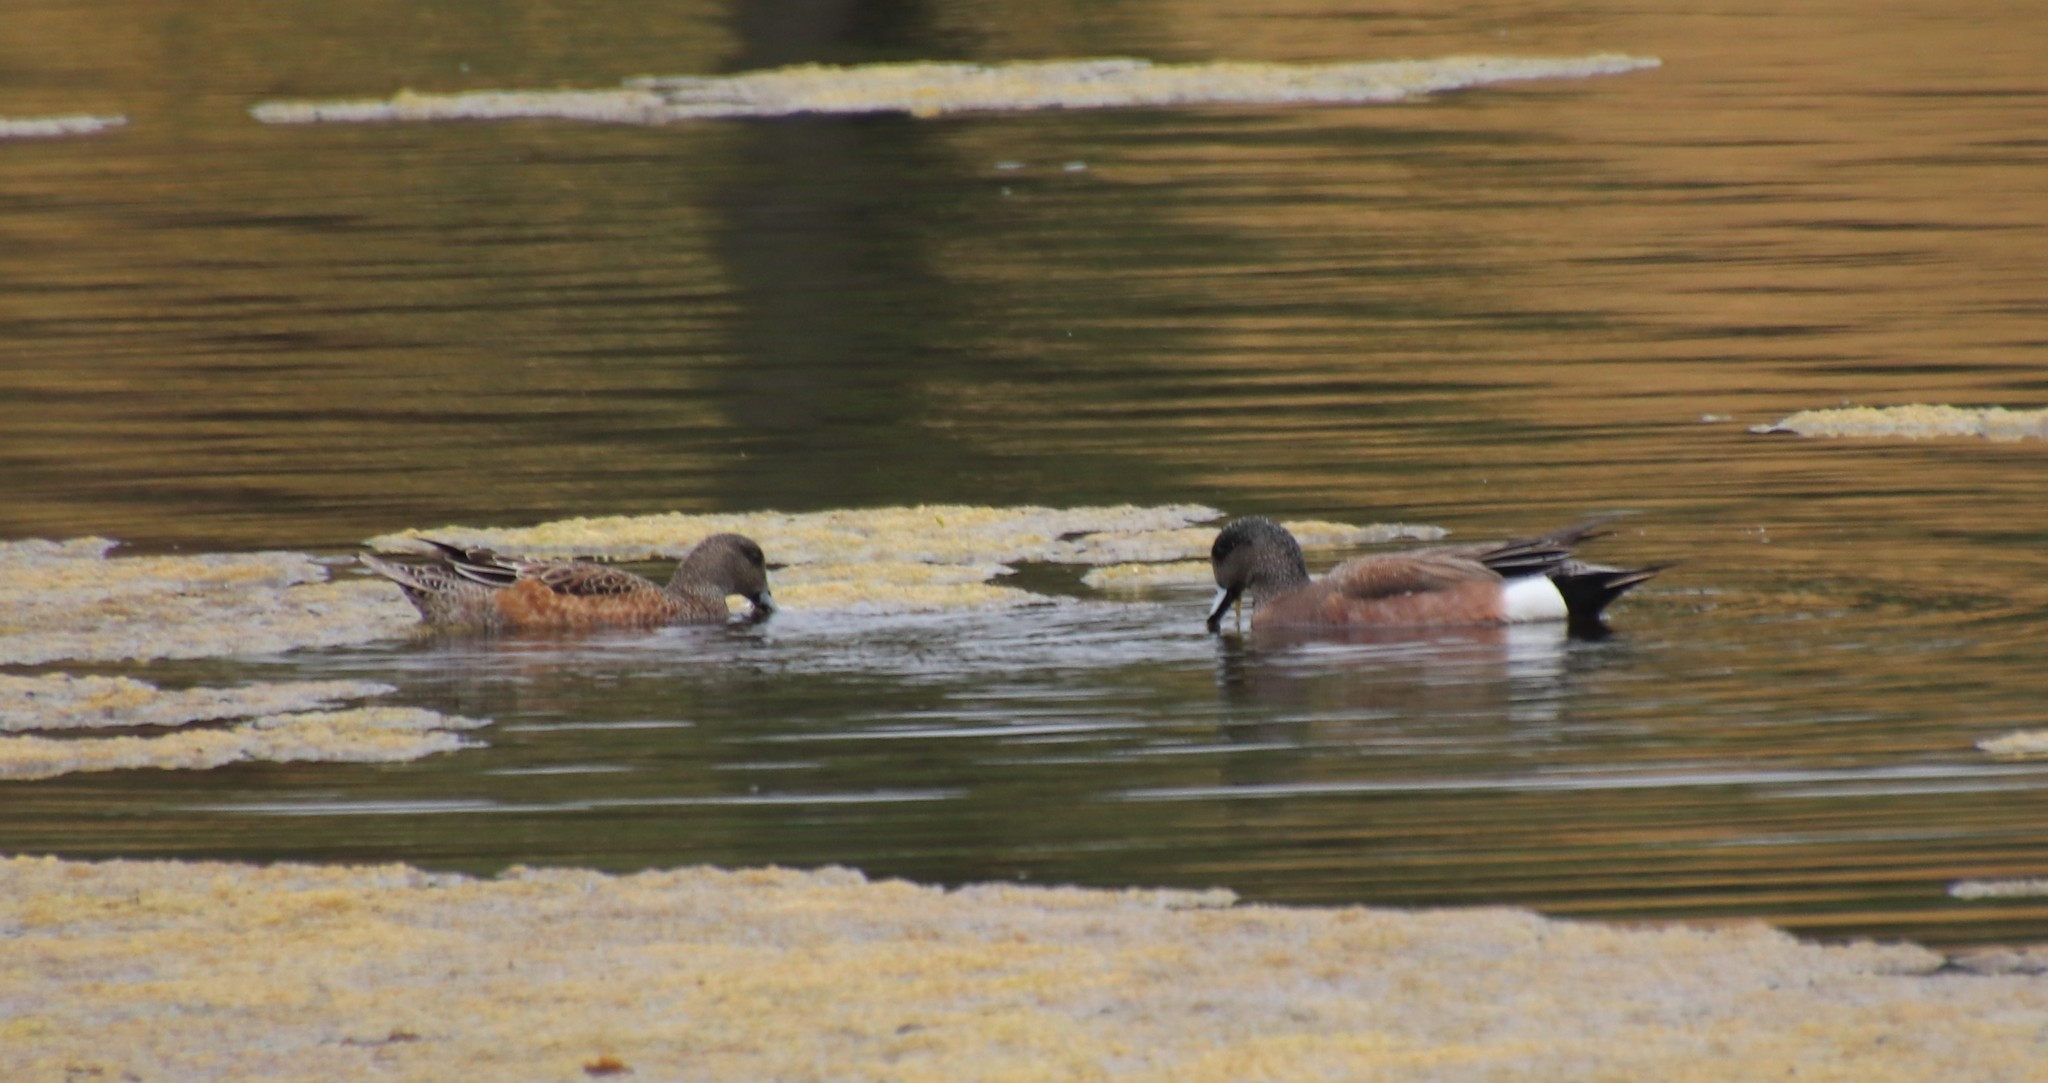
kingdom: Animalia
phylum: Chordata
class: Aves
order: Anseriformes
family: Anatidae
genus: Mareca
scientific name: Mareca americana
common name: American wigeon
